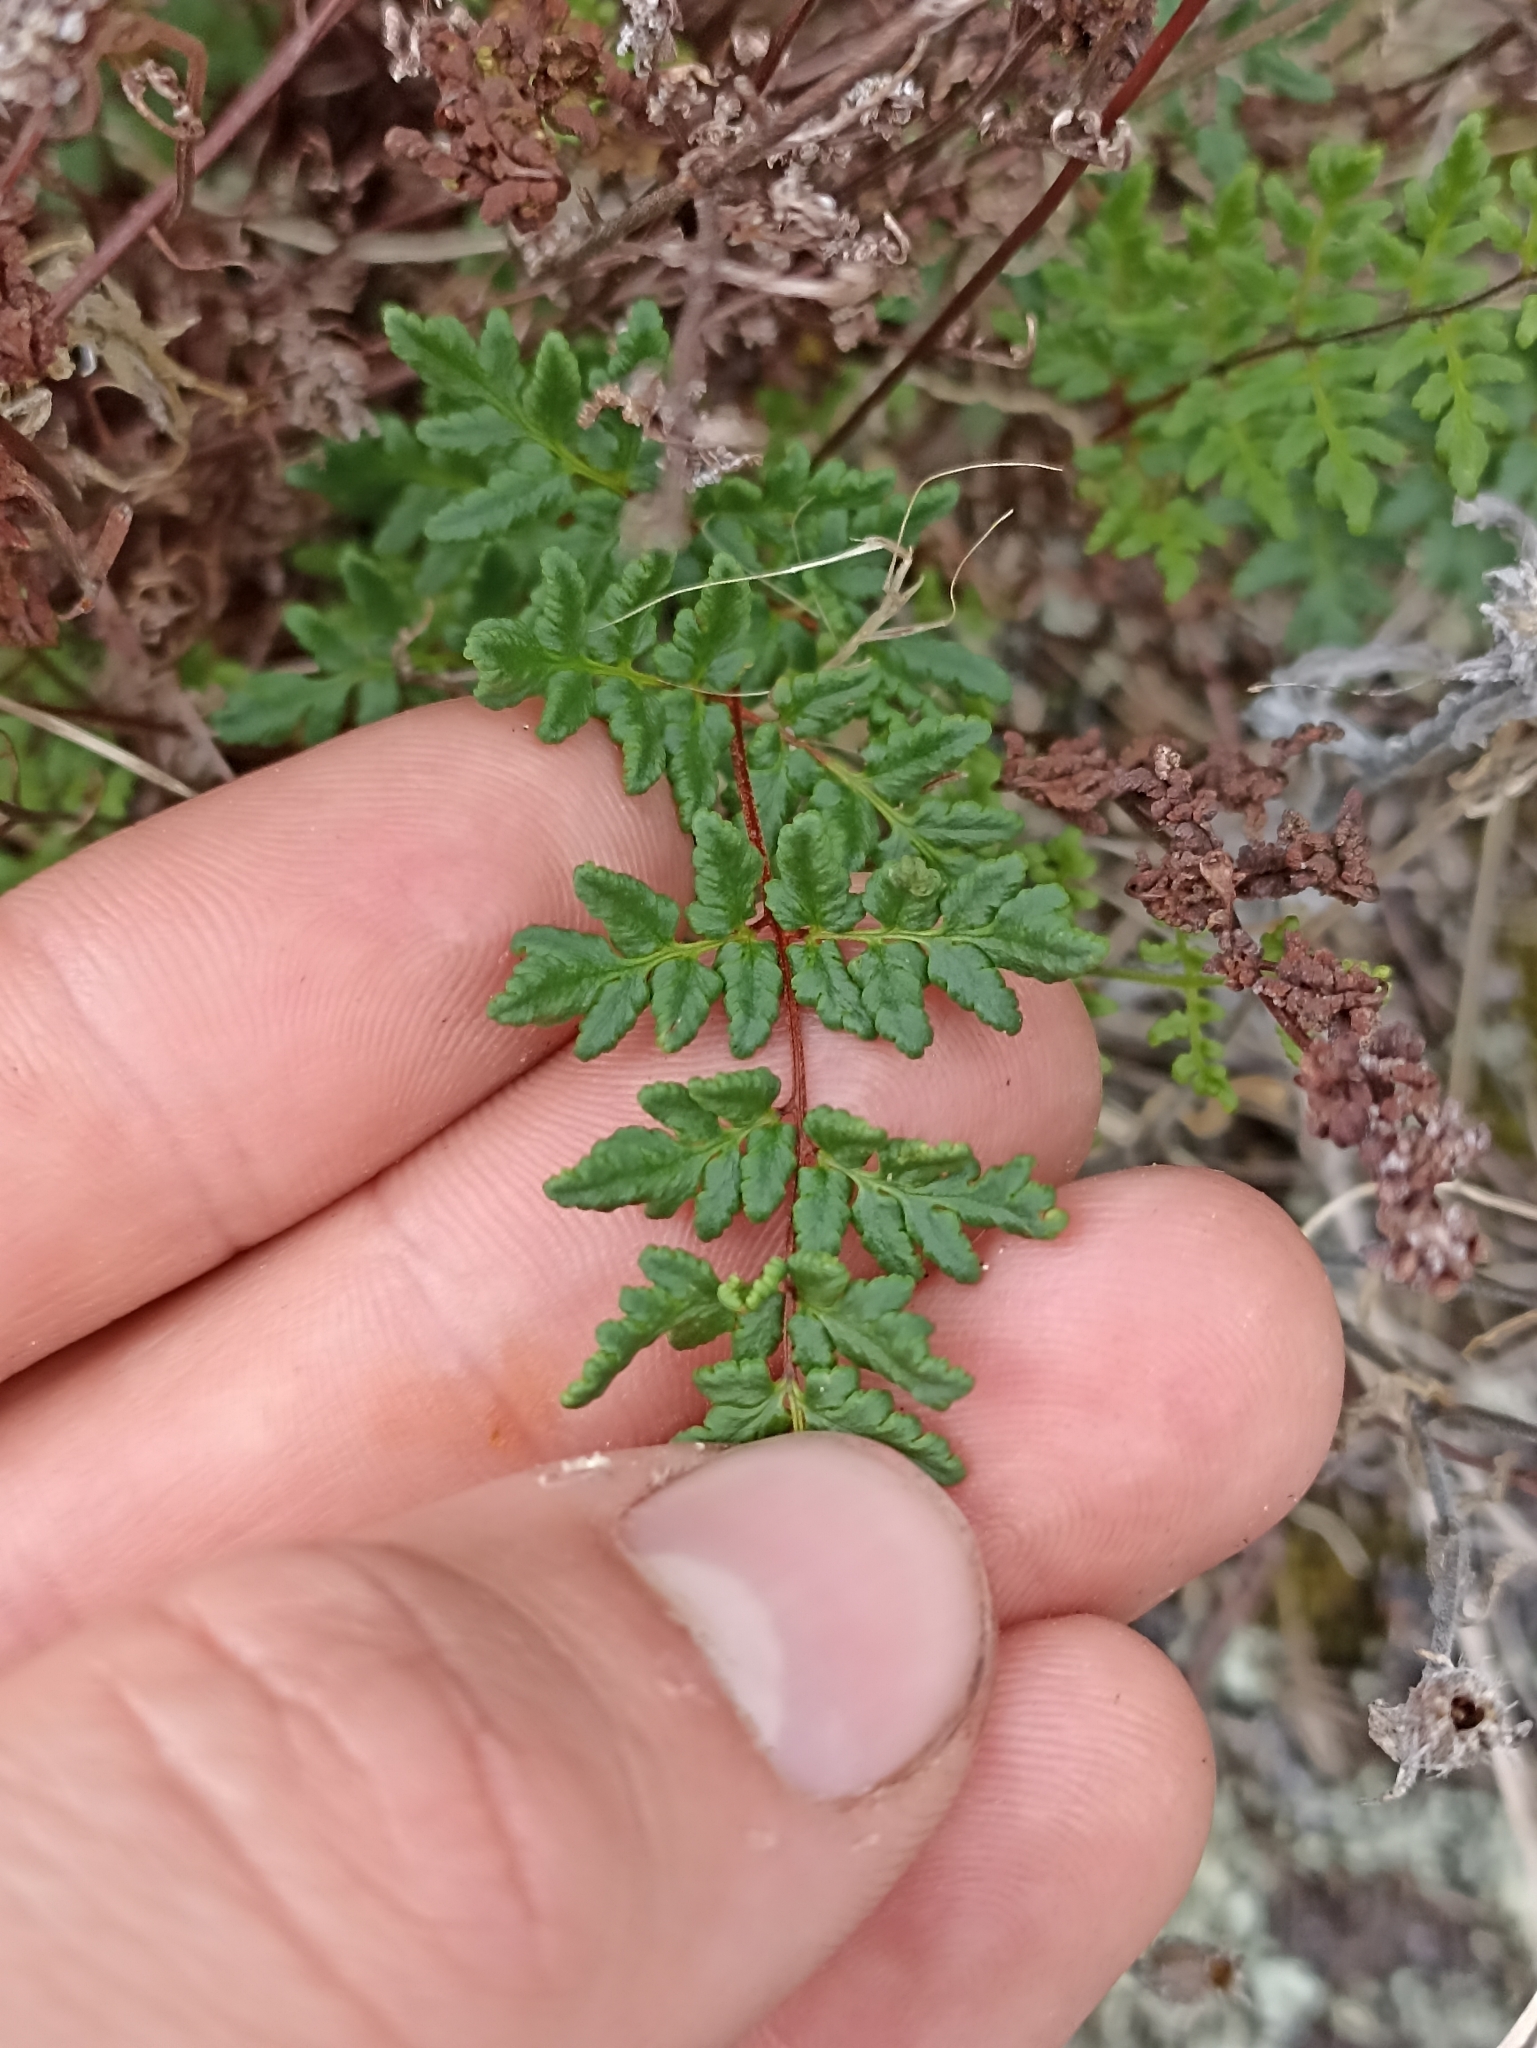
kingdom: Plantae
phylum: Tracheophyta
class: Polypodiopsida
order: Polypodiales
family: Pteridaceae
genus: Cheilanthes
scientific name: Cheilanthes sieberi
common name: Mulga fern
